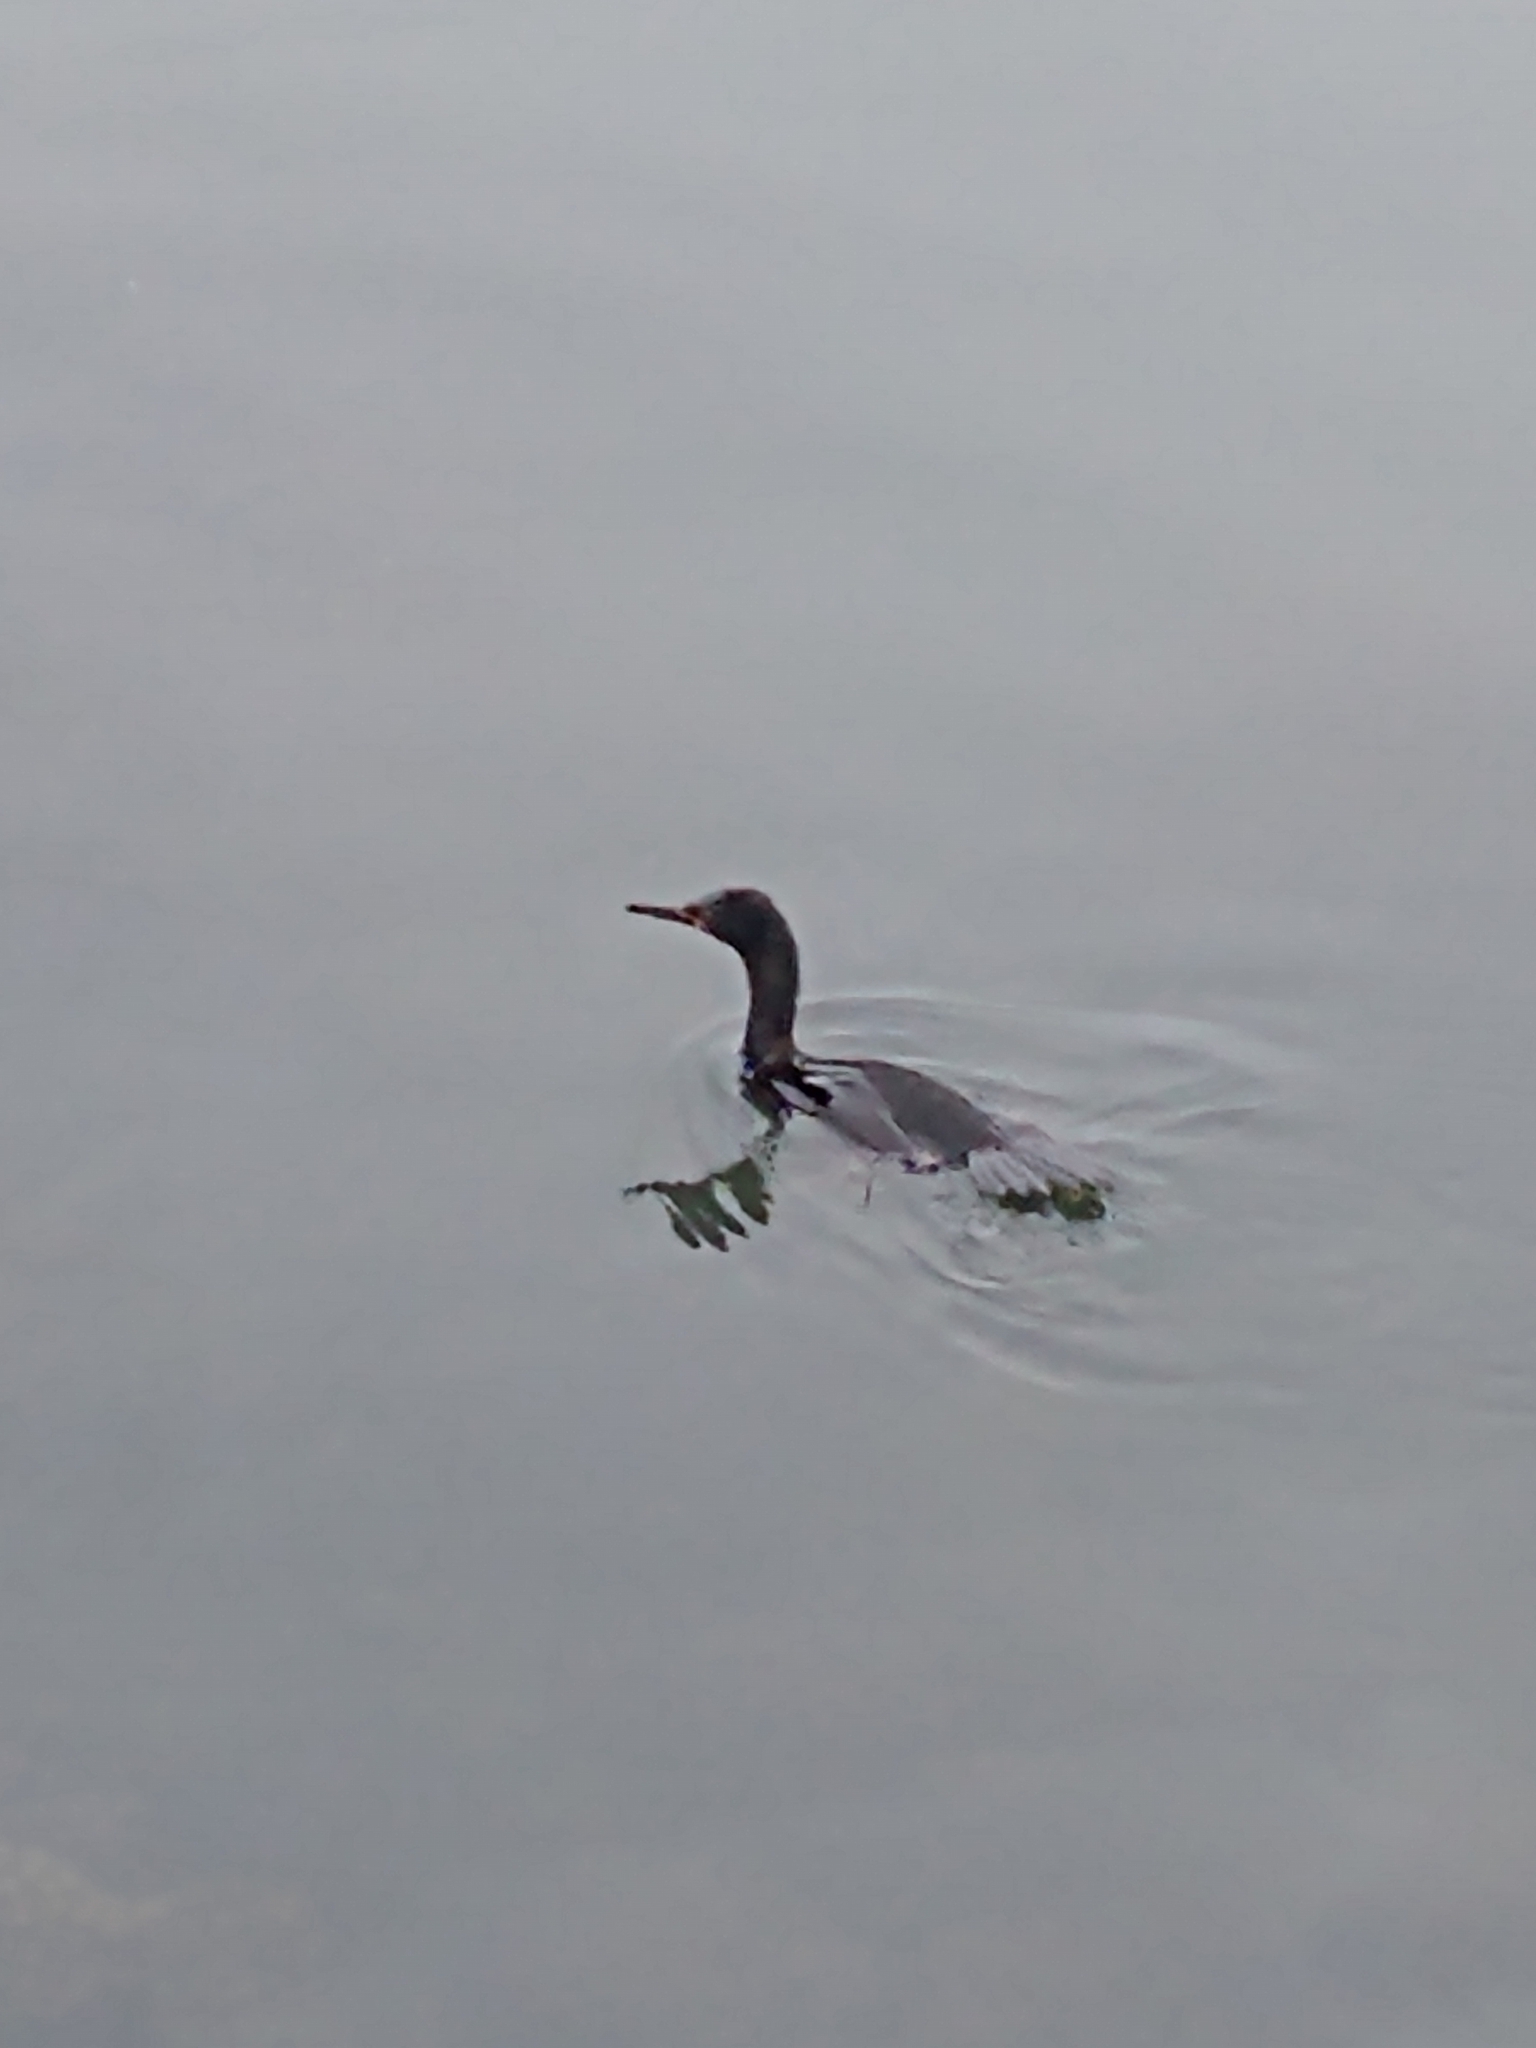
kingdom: Animalia
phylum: Chordata
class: Aves
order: Suliformes
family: Phalacrocoracidae
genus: Phalacrocorax
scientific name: Phalacrocorax brasilianus
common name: Neotropic cormorant
